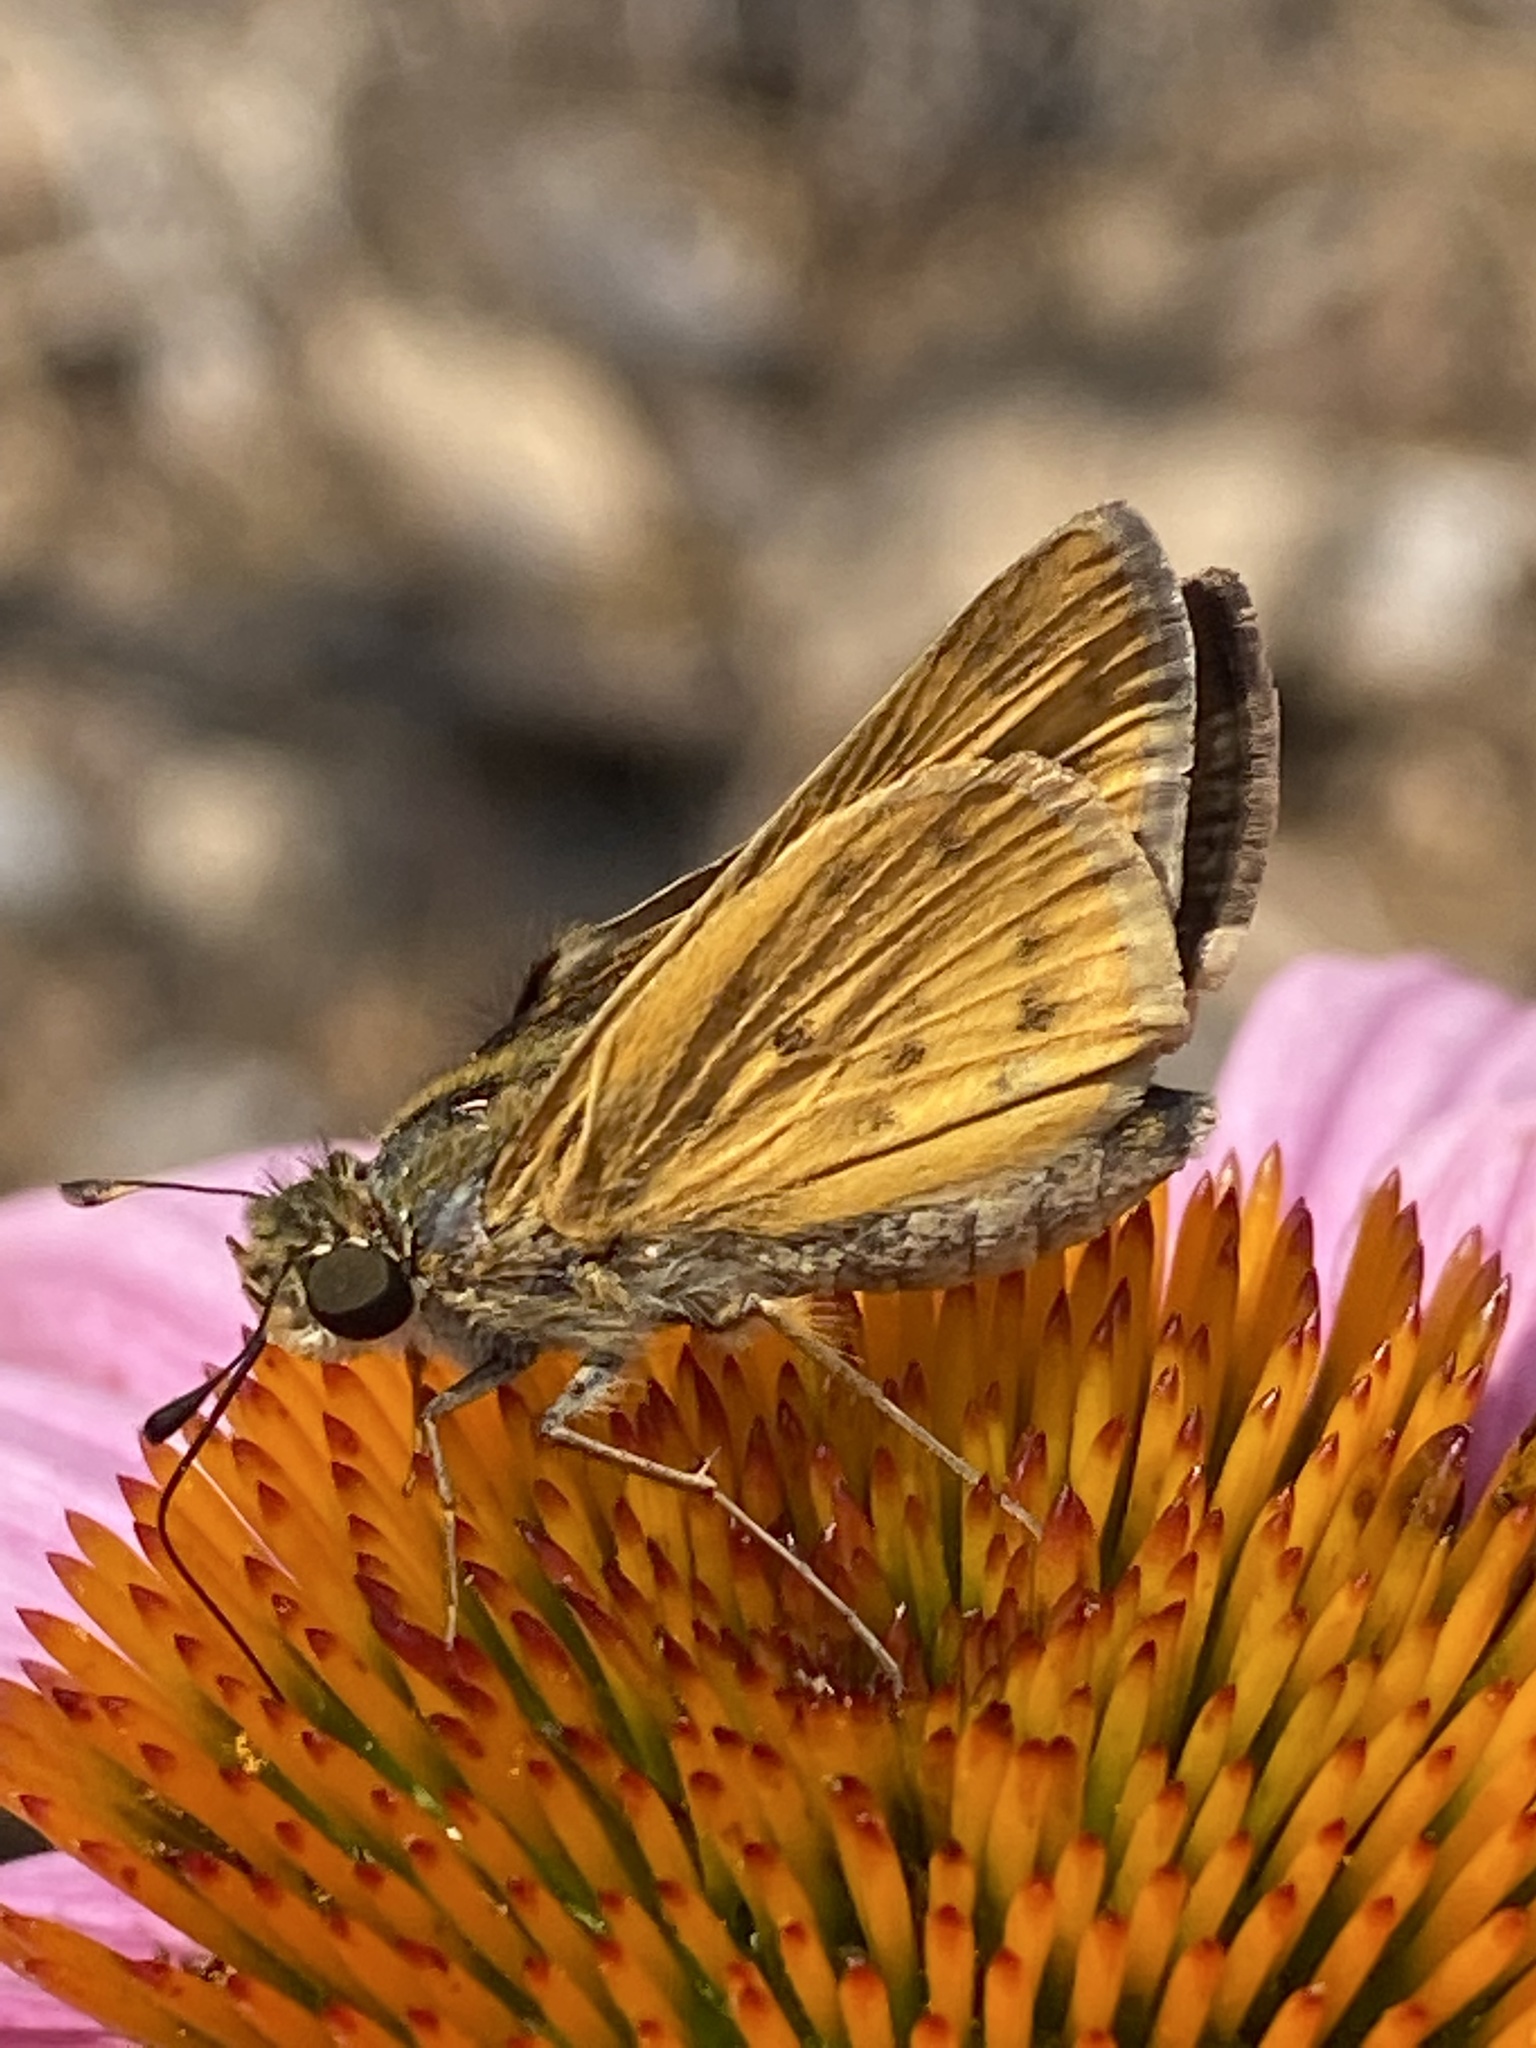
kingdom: Animalia
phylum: Arthropoda
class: Insecta
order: Lepidoptera
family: Hesperiidae
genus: Hylephila
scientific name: Hylephila phyleus
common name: Fiery skipper
